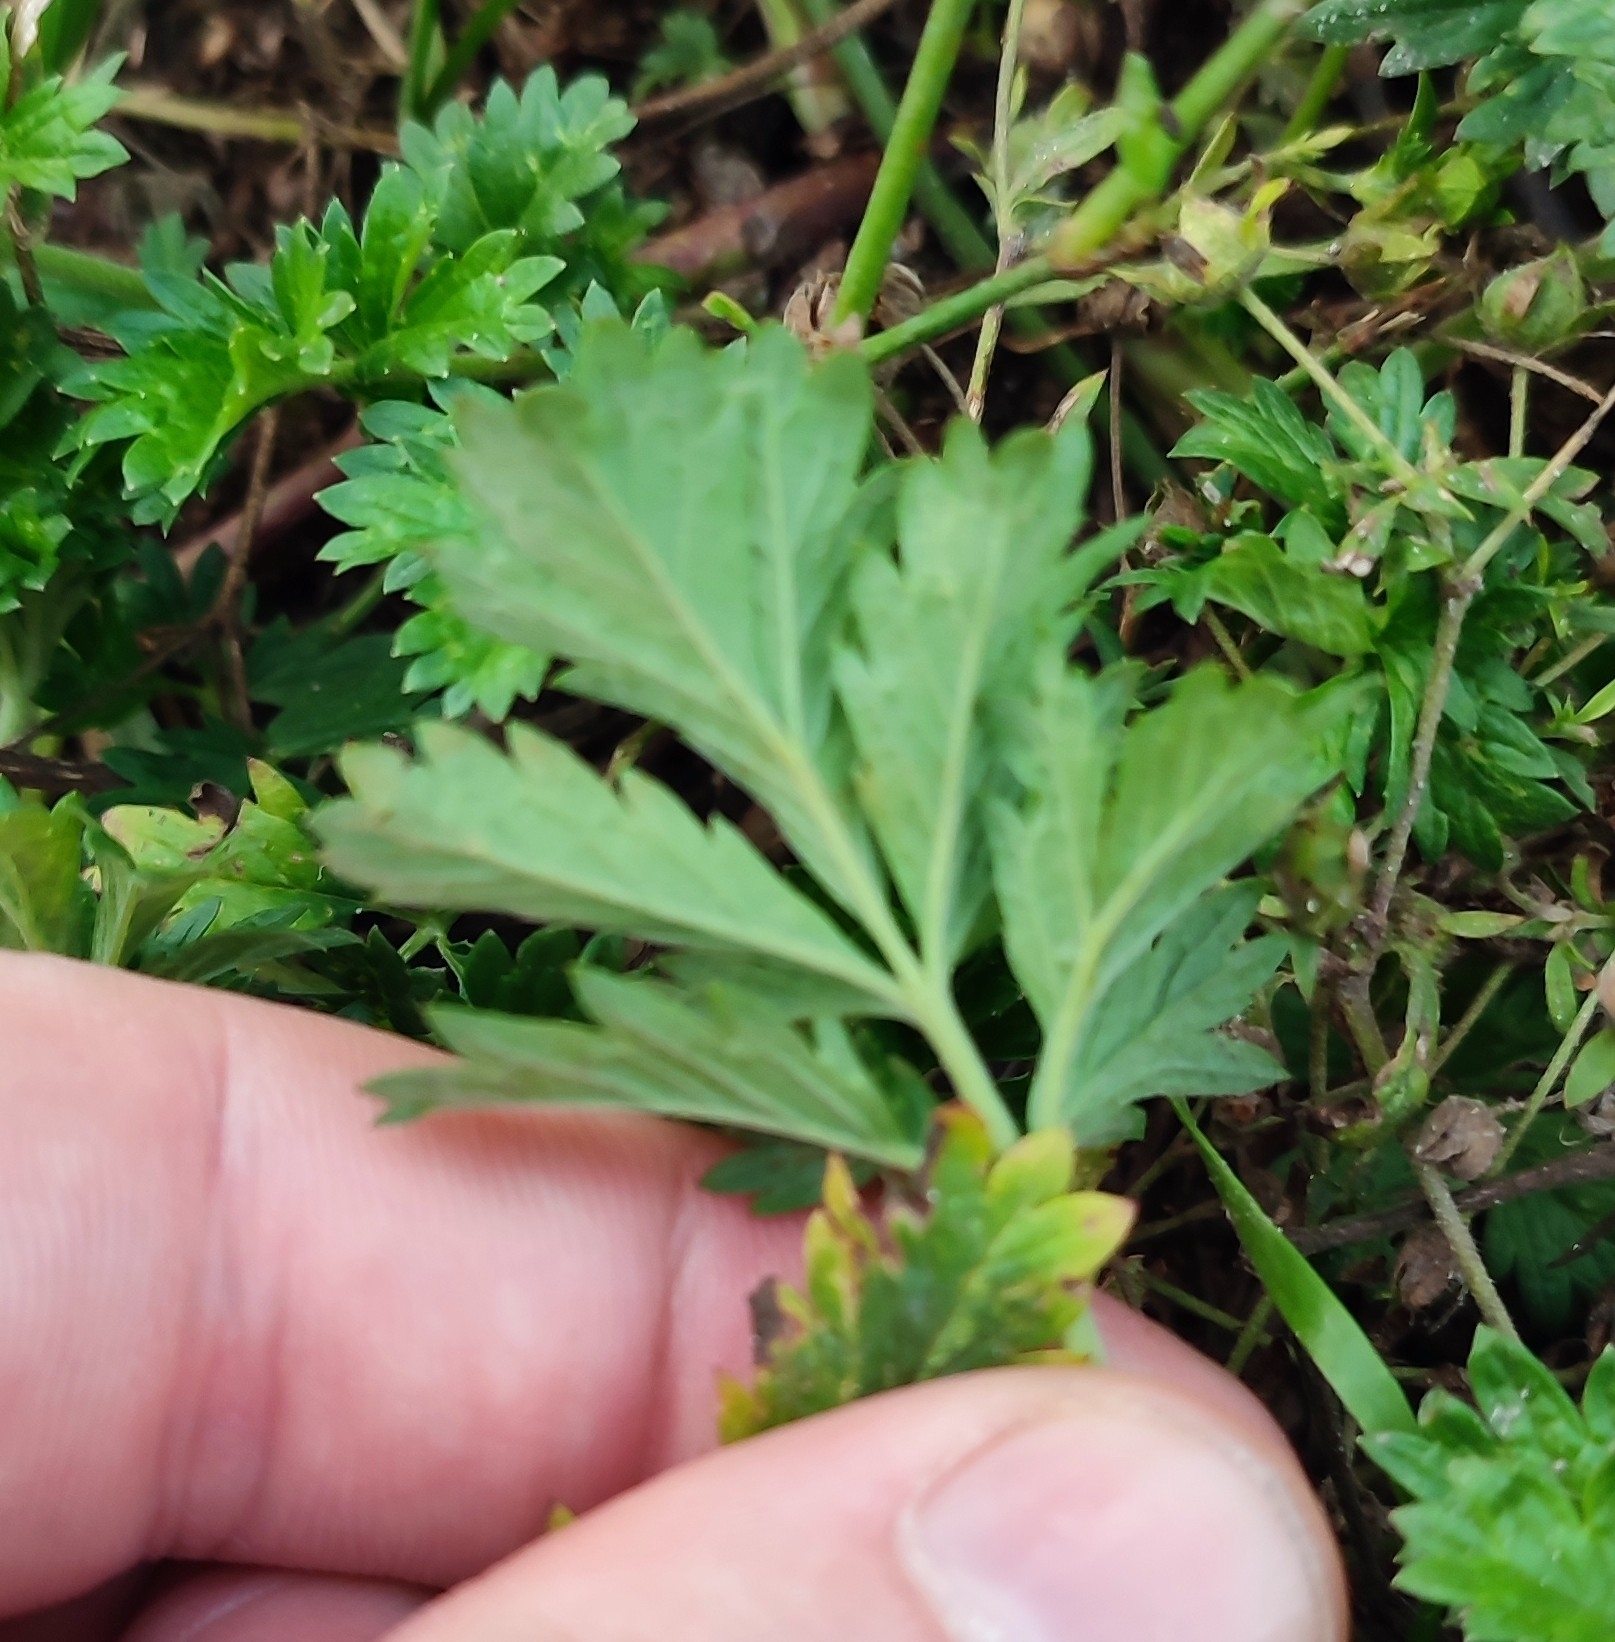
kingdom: Plantae
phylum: Tracheophyta
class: Magnoliopsida
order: Rosales
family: Rosaceae
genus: Potentilla
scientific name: Potentilla tobolensis
